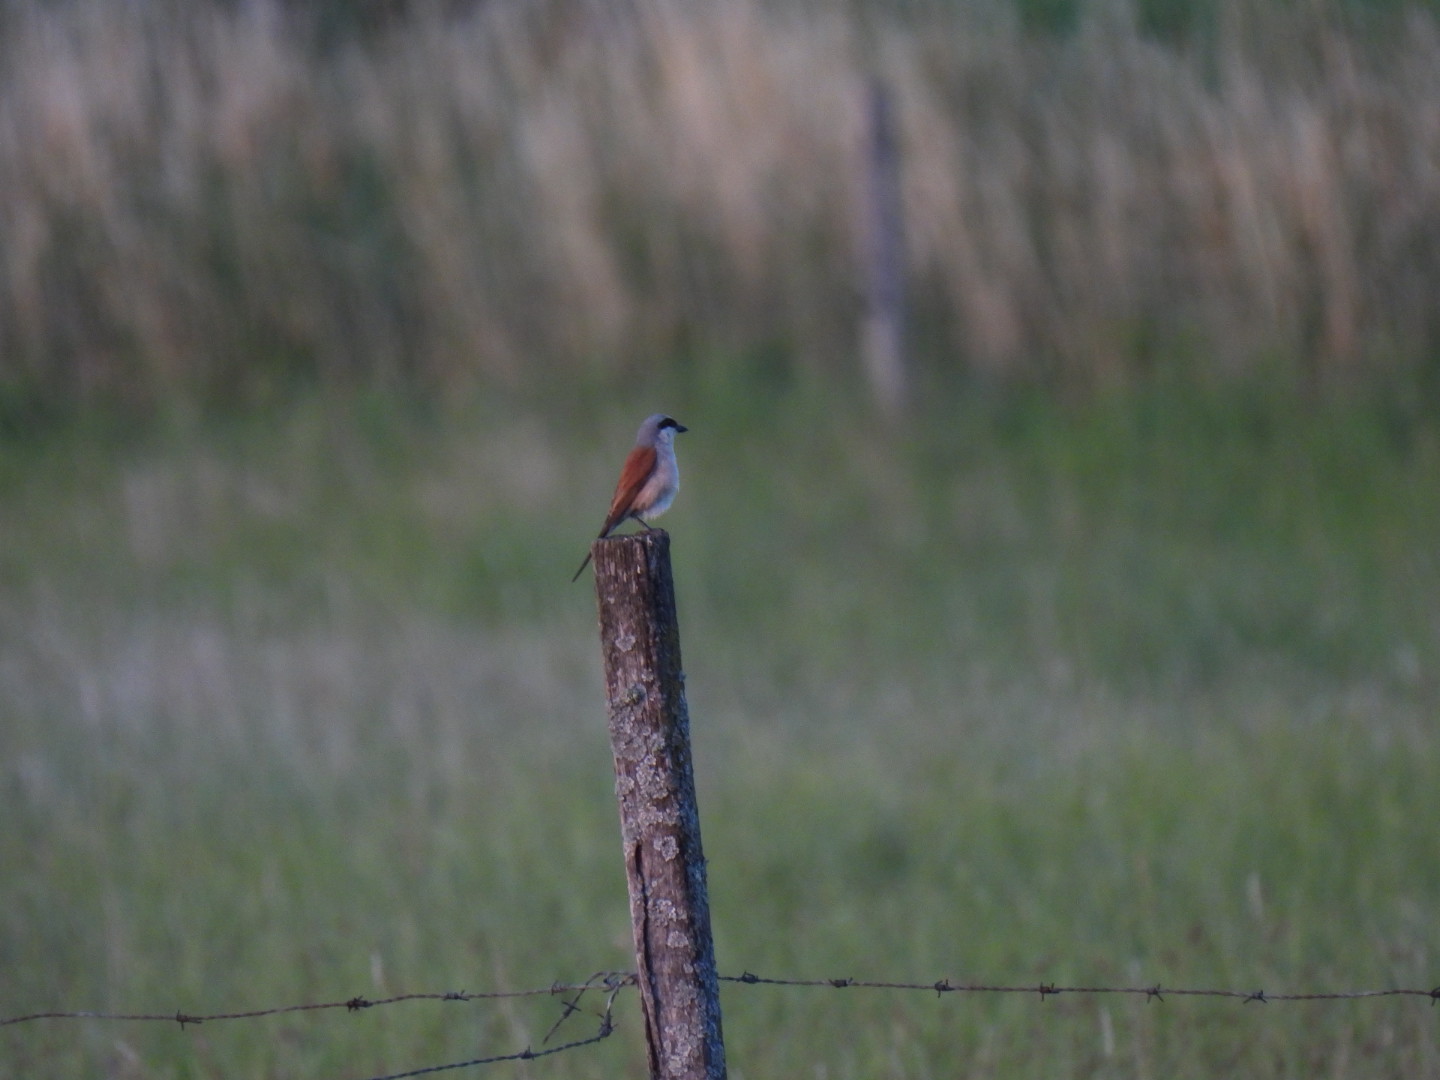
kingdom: Animalia
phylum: Chordata
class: Aves
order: Passeriformes
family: Laniidae
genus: Lanius
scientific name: Lanius collurio
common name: Red-backed shrike
